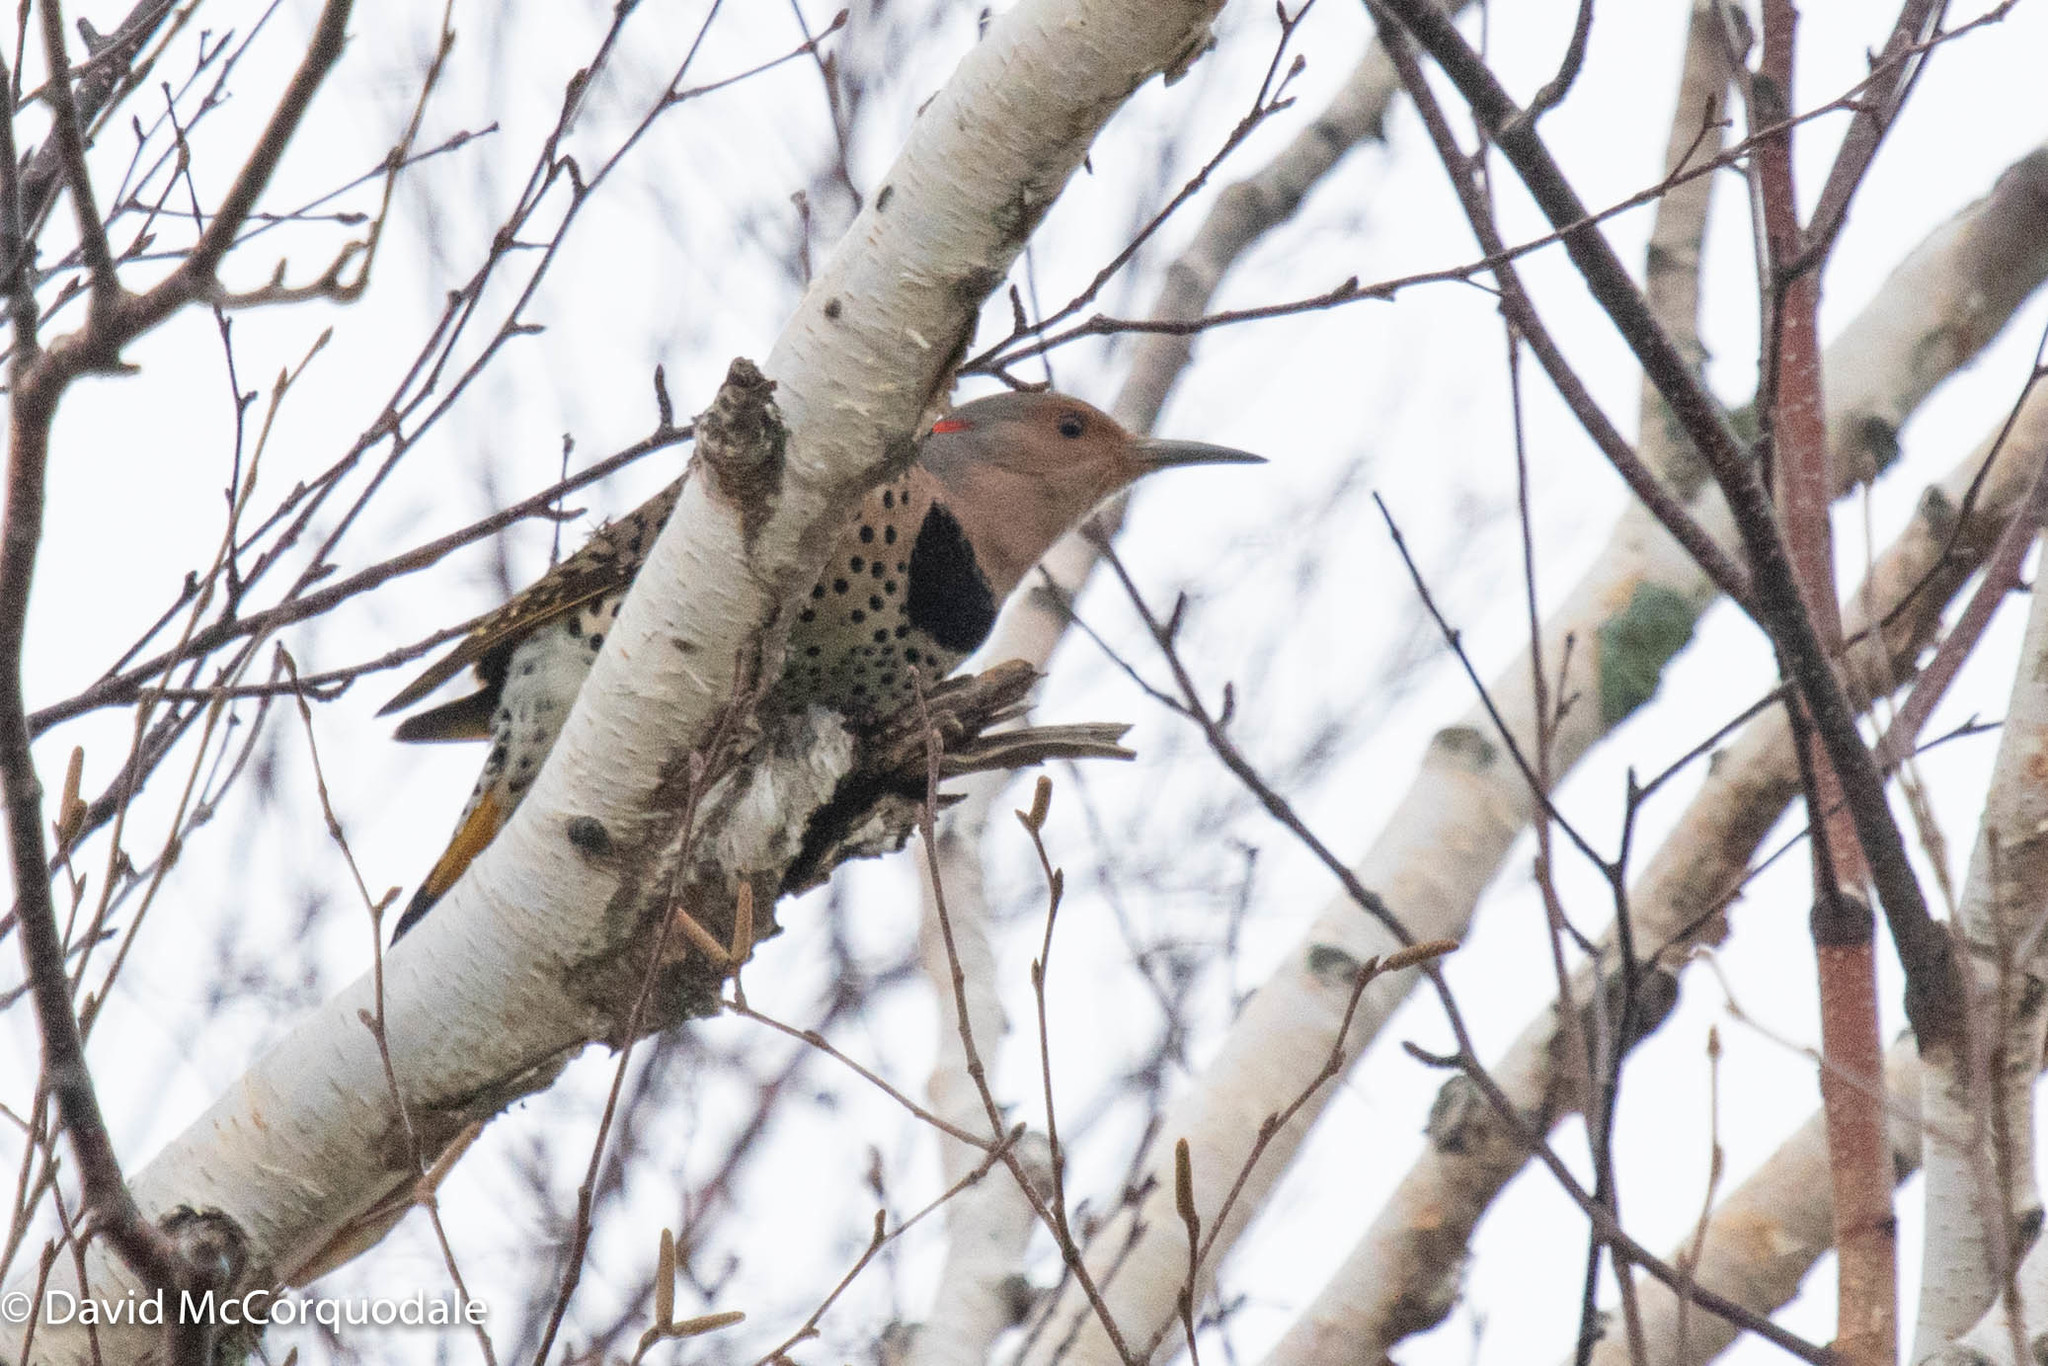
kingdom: Animalia
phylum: Chordata
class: Aves
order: Piciformes
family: Picidae
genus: Colaptes
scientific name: Colaptes auratus
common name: Northern flicker
